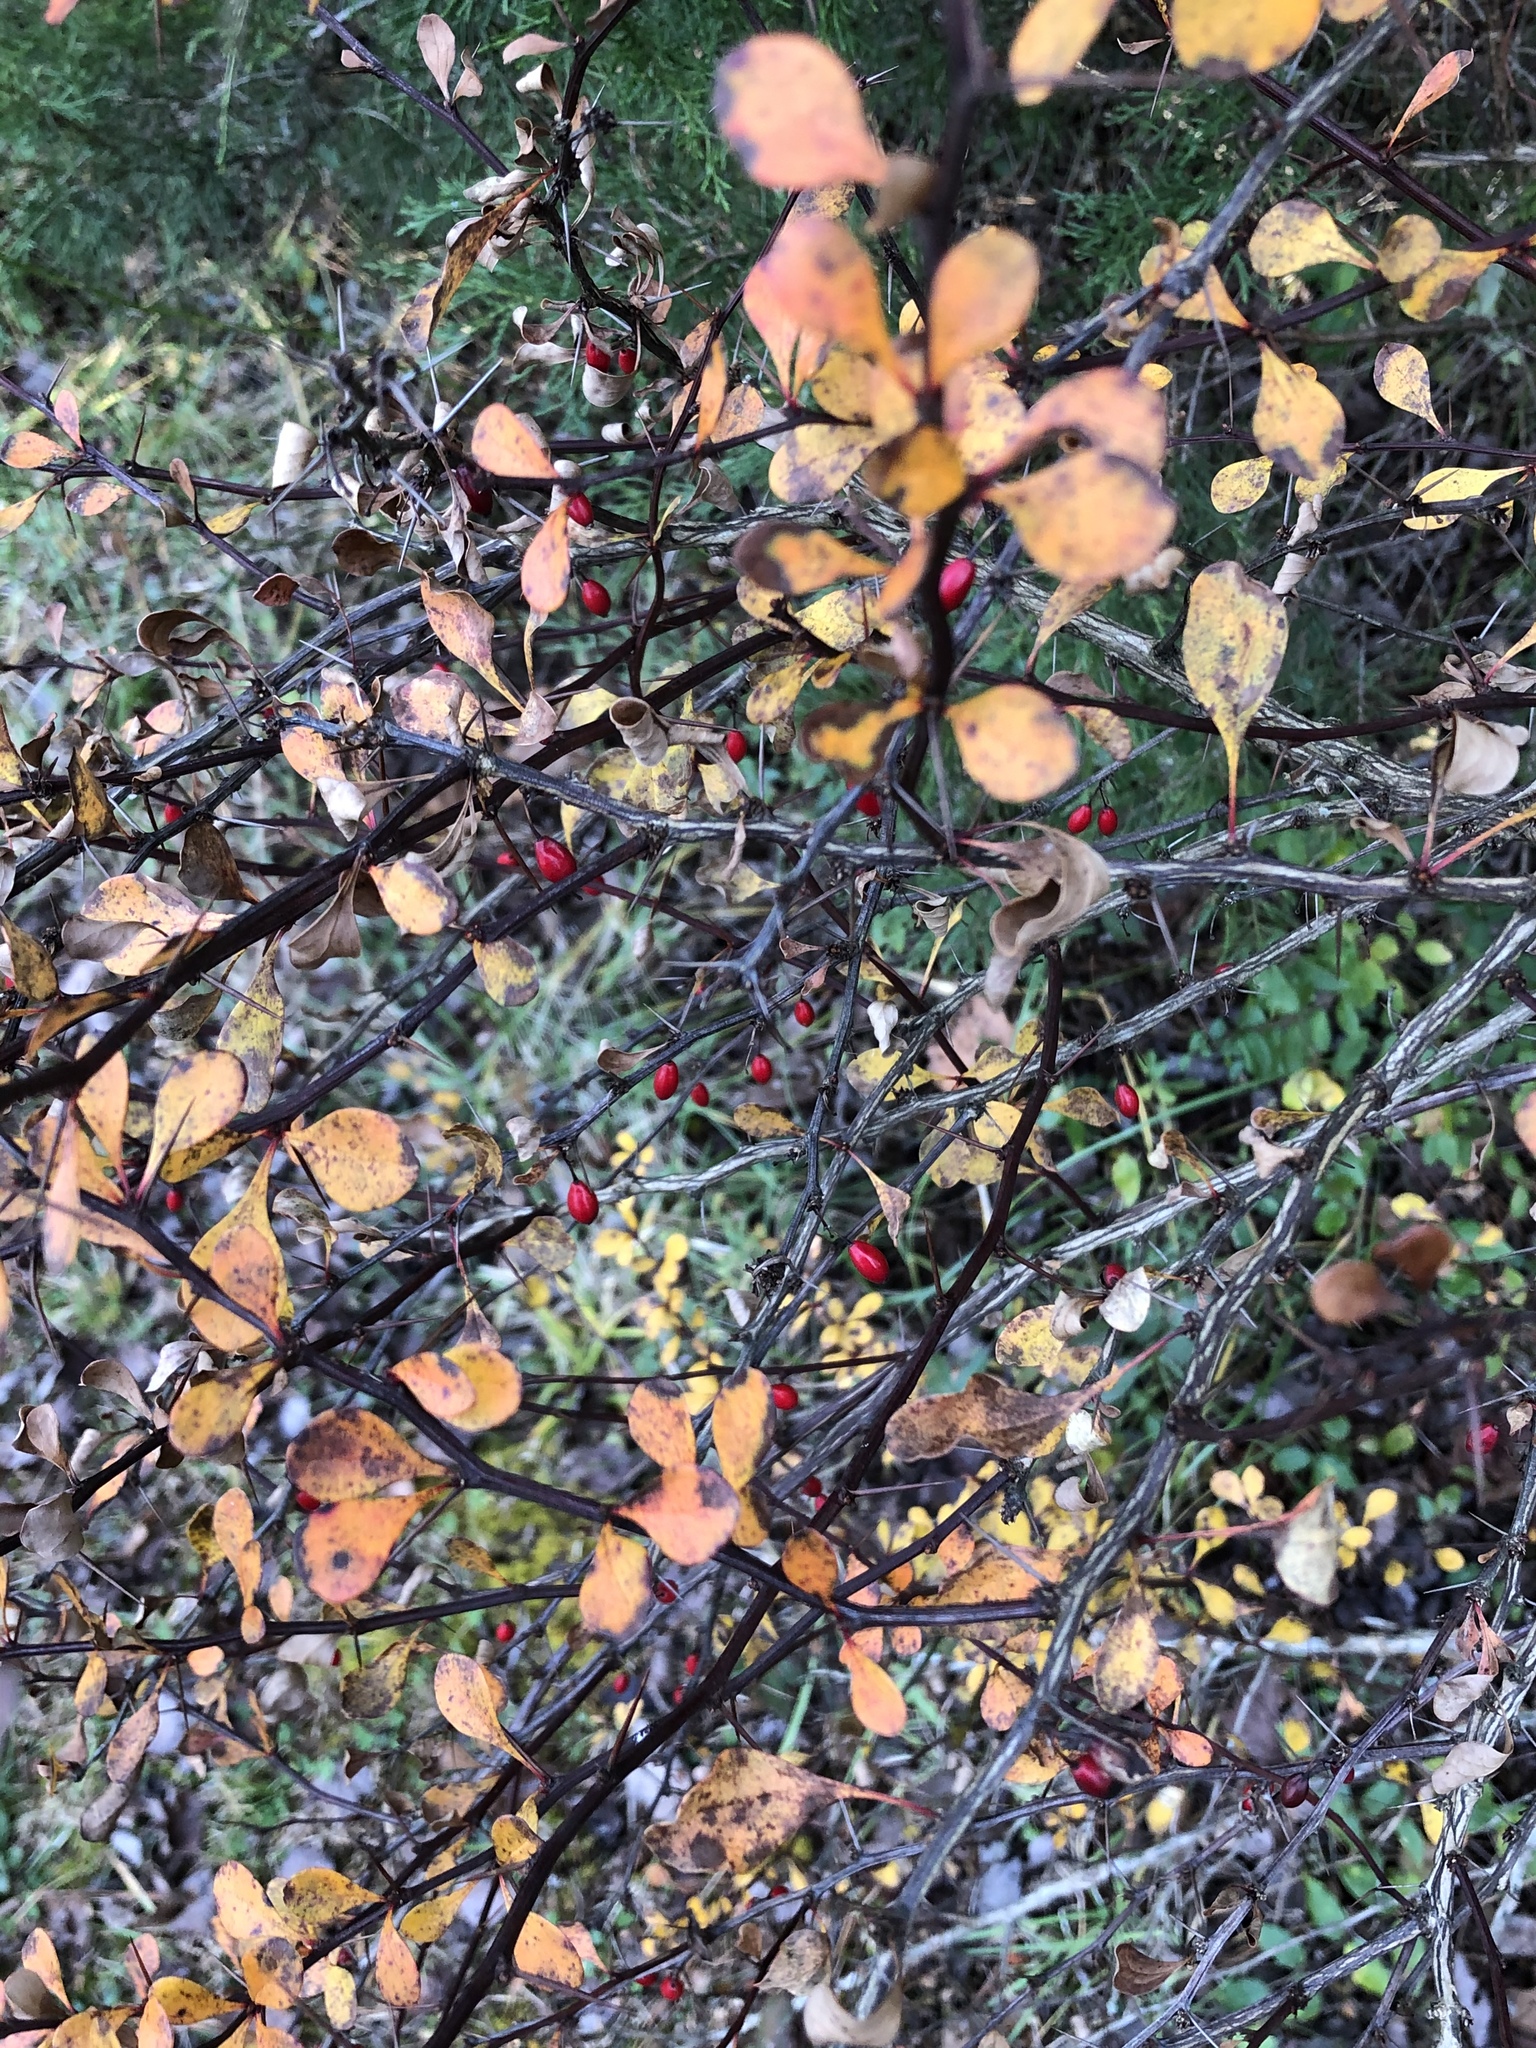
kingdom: Plantae
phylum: Tracheophyta
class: Magnoliopsida
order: Ranunculales
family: Berberidaceae
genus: Berberis
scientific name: Berberis thunbergii
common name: Japanese barberry
